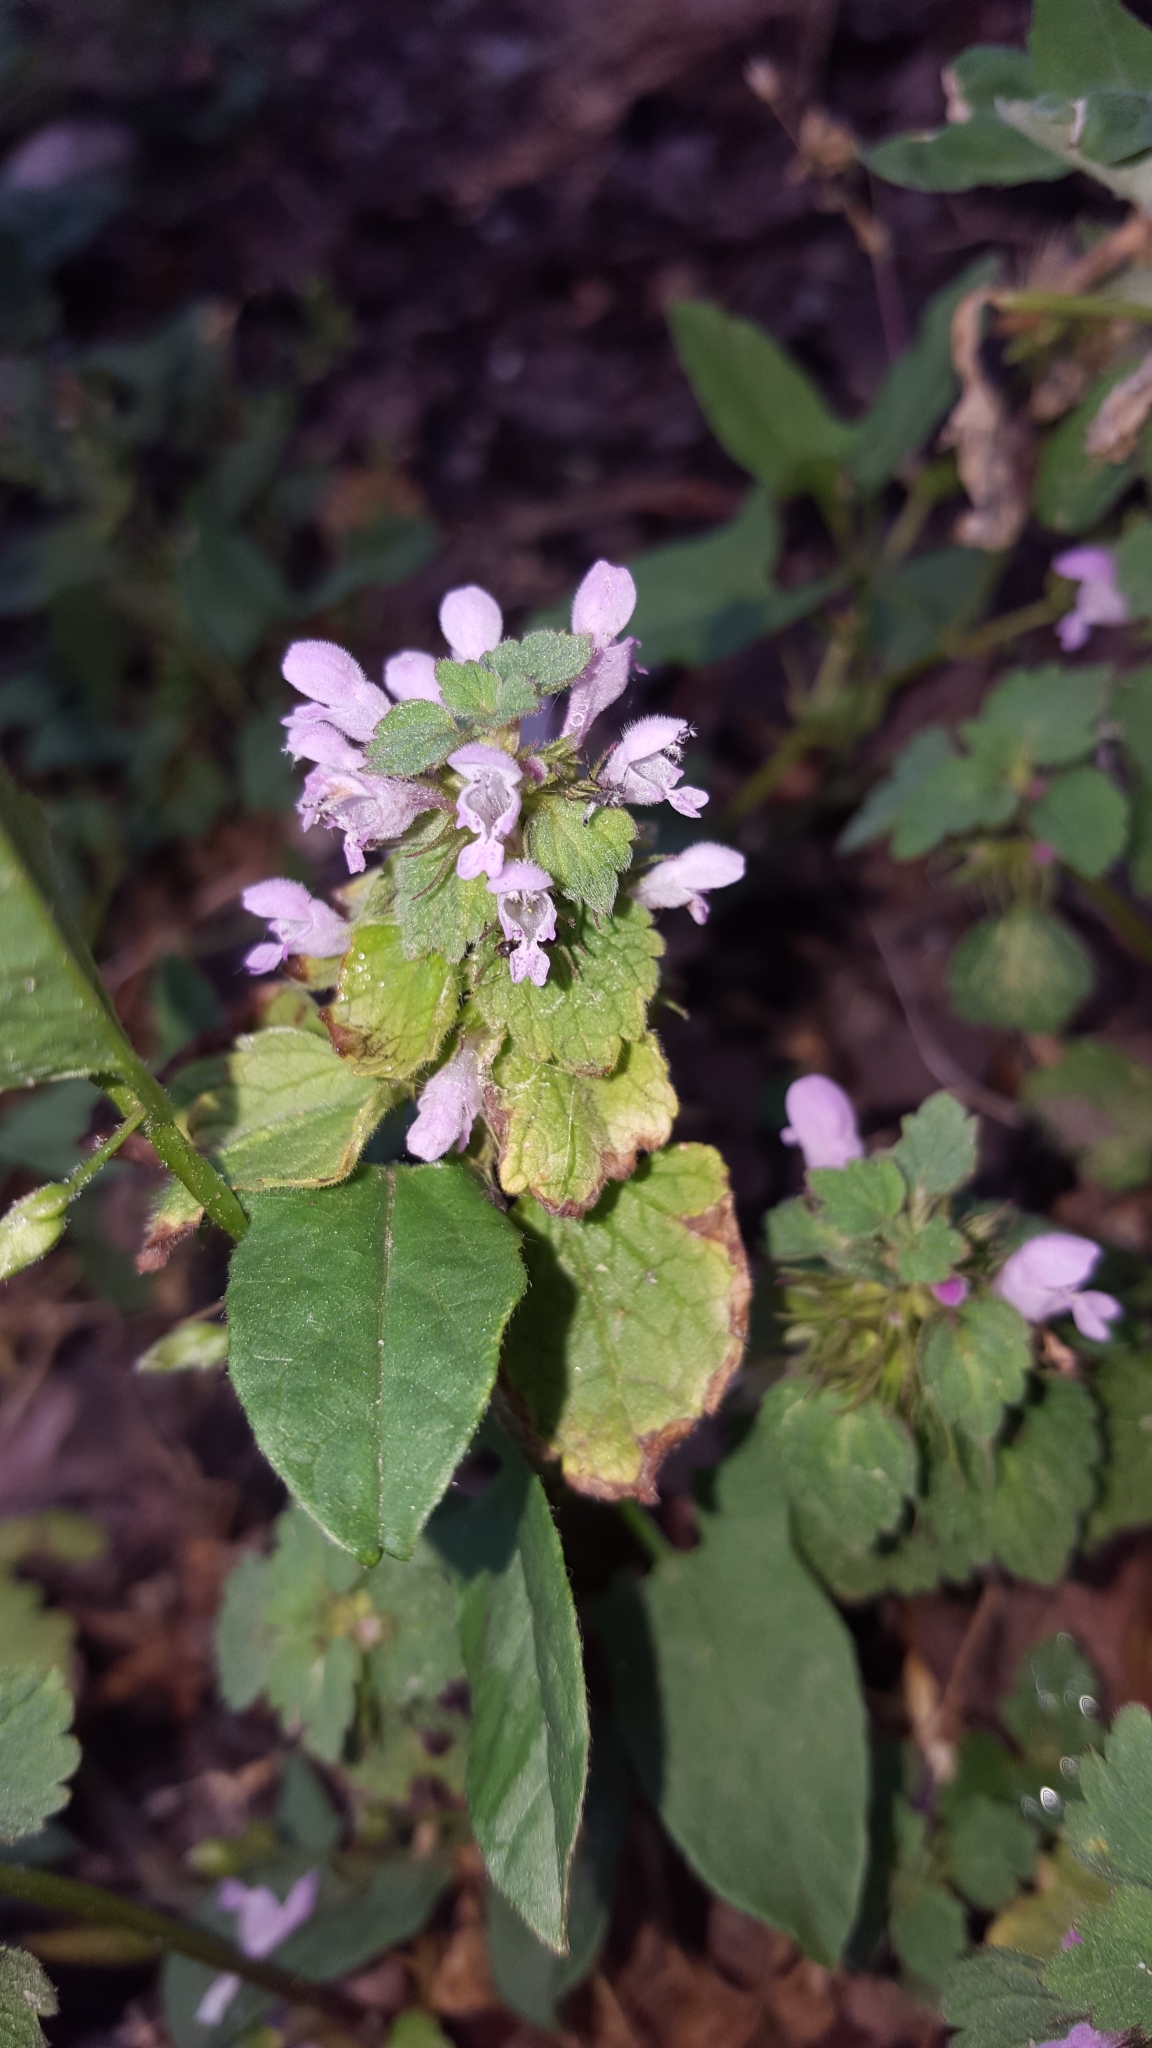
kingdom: Plantae
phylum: Tracheophyta
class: Magnoliopsida
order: Lamiales
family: Lamiaceae
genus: Lamium
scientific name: Lamium purpureum
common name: Red dead-nettle
